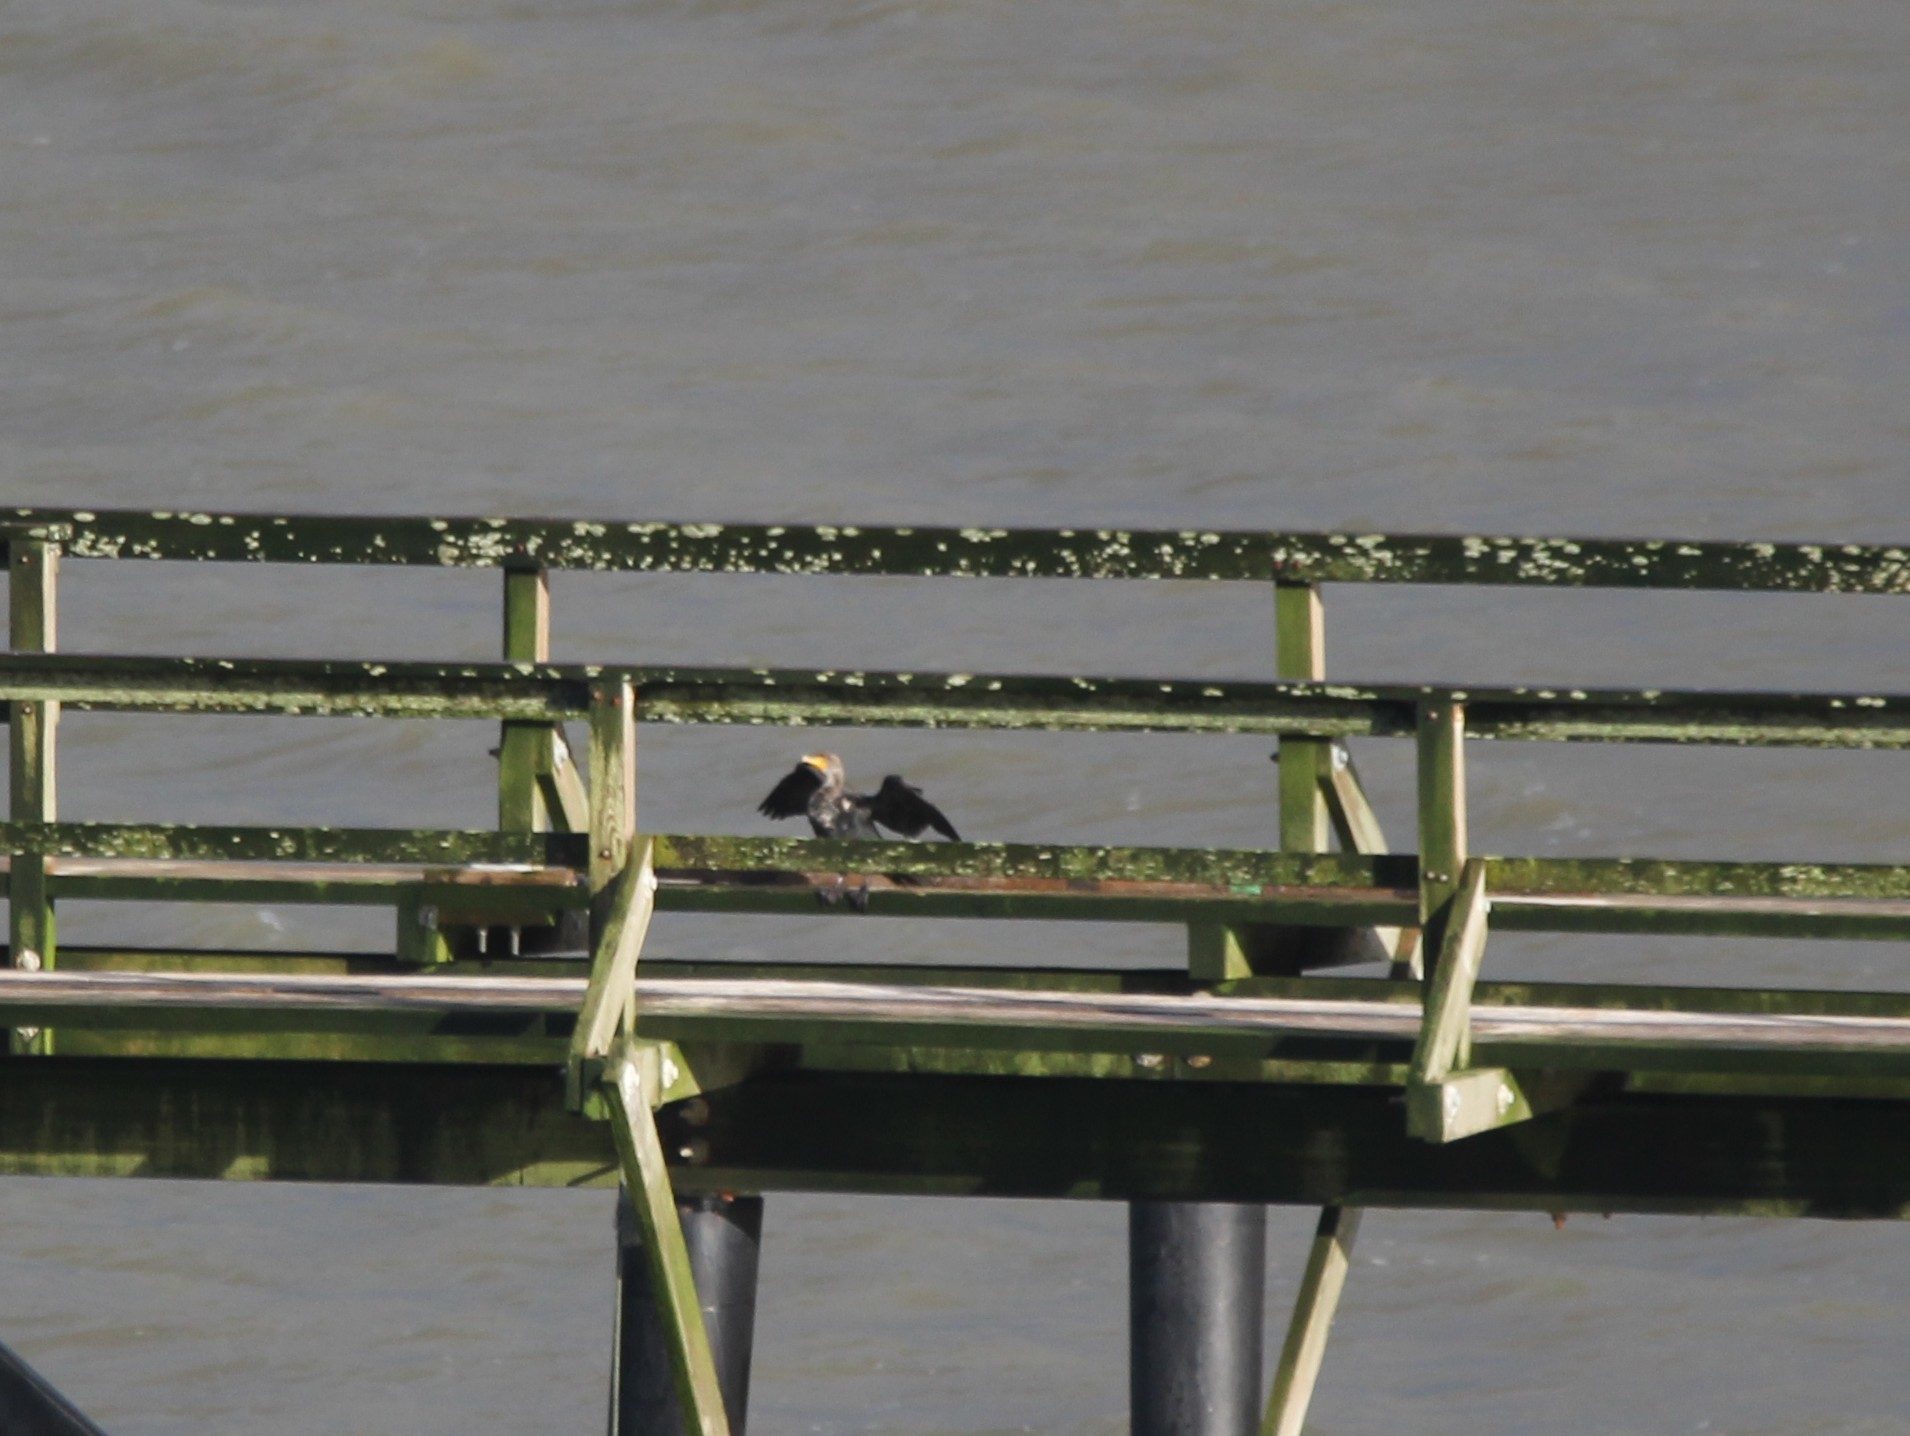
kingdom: Animalia
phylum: Chordata
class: Aves
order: Suliformes
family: Phalacrocoracidae
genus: Phalacrocorax
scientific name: Phalacrocorax auritus
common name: Double-crested cormorant
